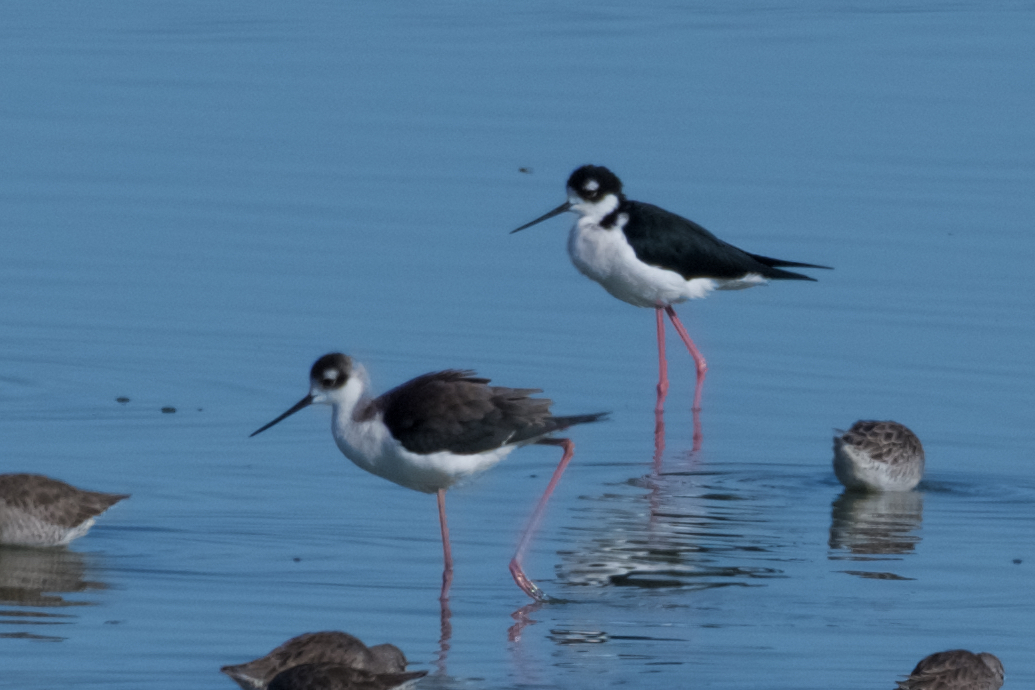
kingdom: Animalia
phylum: Chordata
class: Aves
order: Charadriiformes
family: Recurvirostridae
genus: Himantopus
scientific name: Himantopus mexicanus
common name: Black-necked stilt
